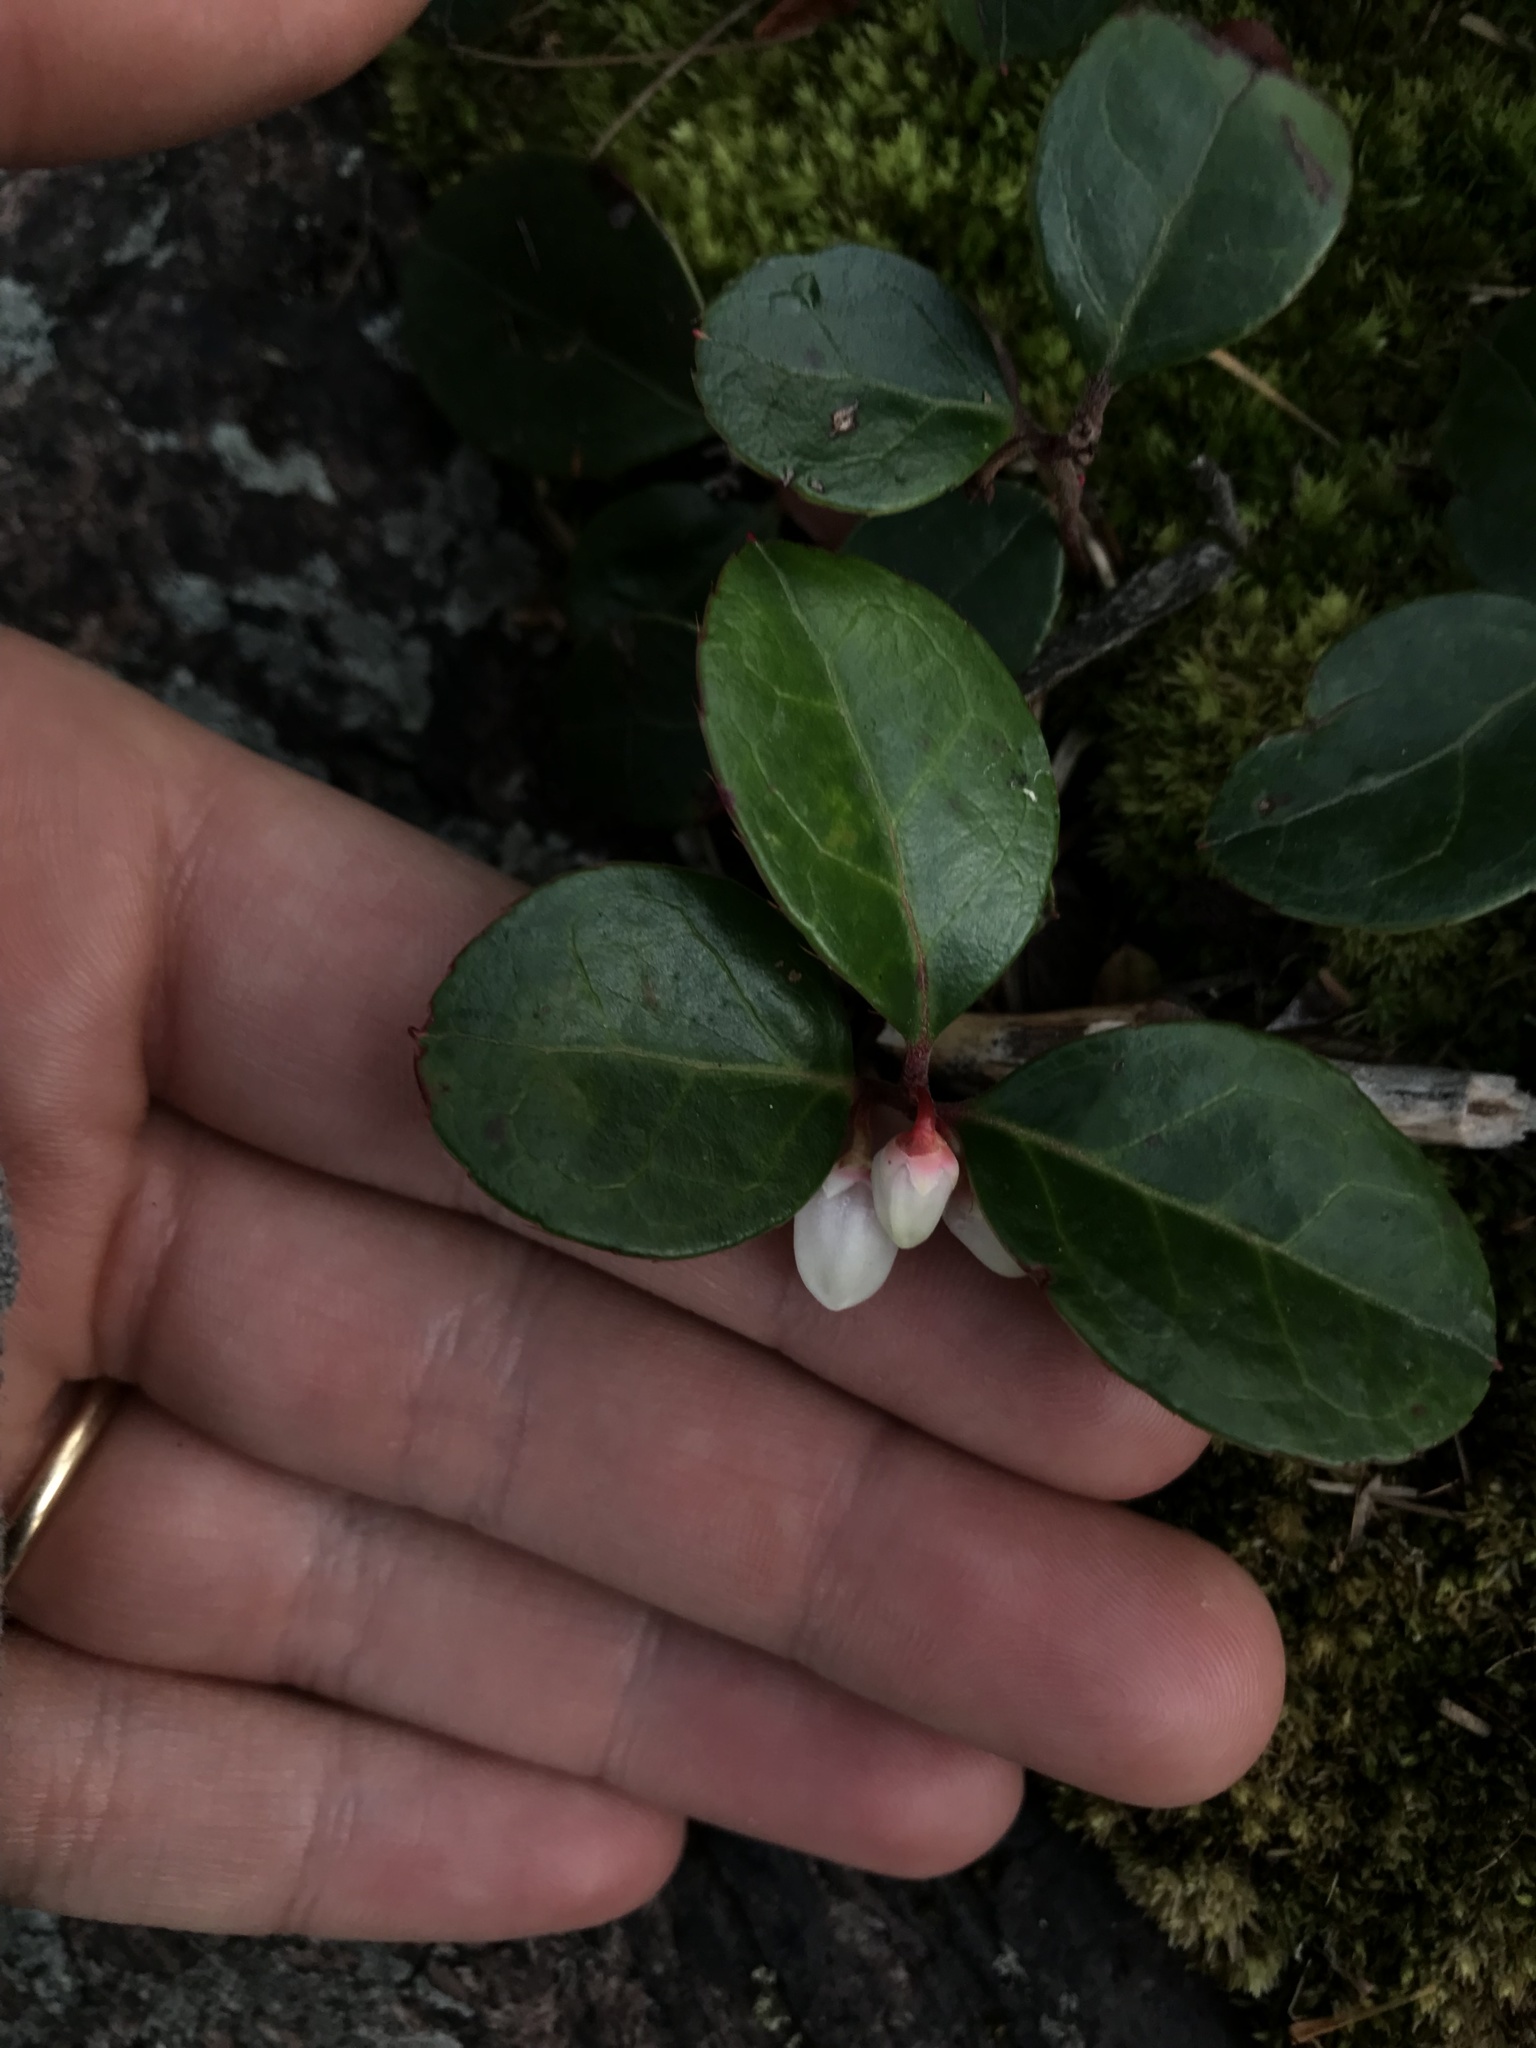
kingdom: Plantae
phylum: Tracheophyta
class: Magnoliopsida
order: Ericales
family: Ericaceae
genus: Gaultheria
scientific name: Gaultheria procumbens
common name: Checkerberry
